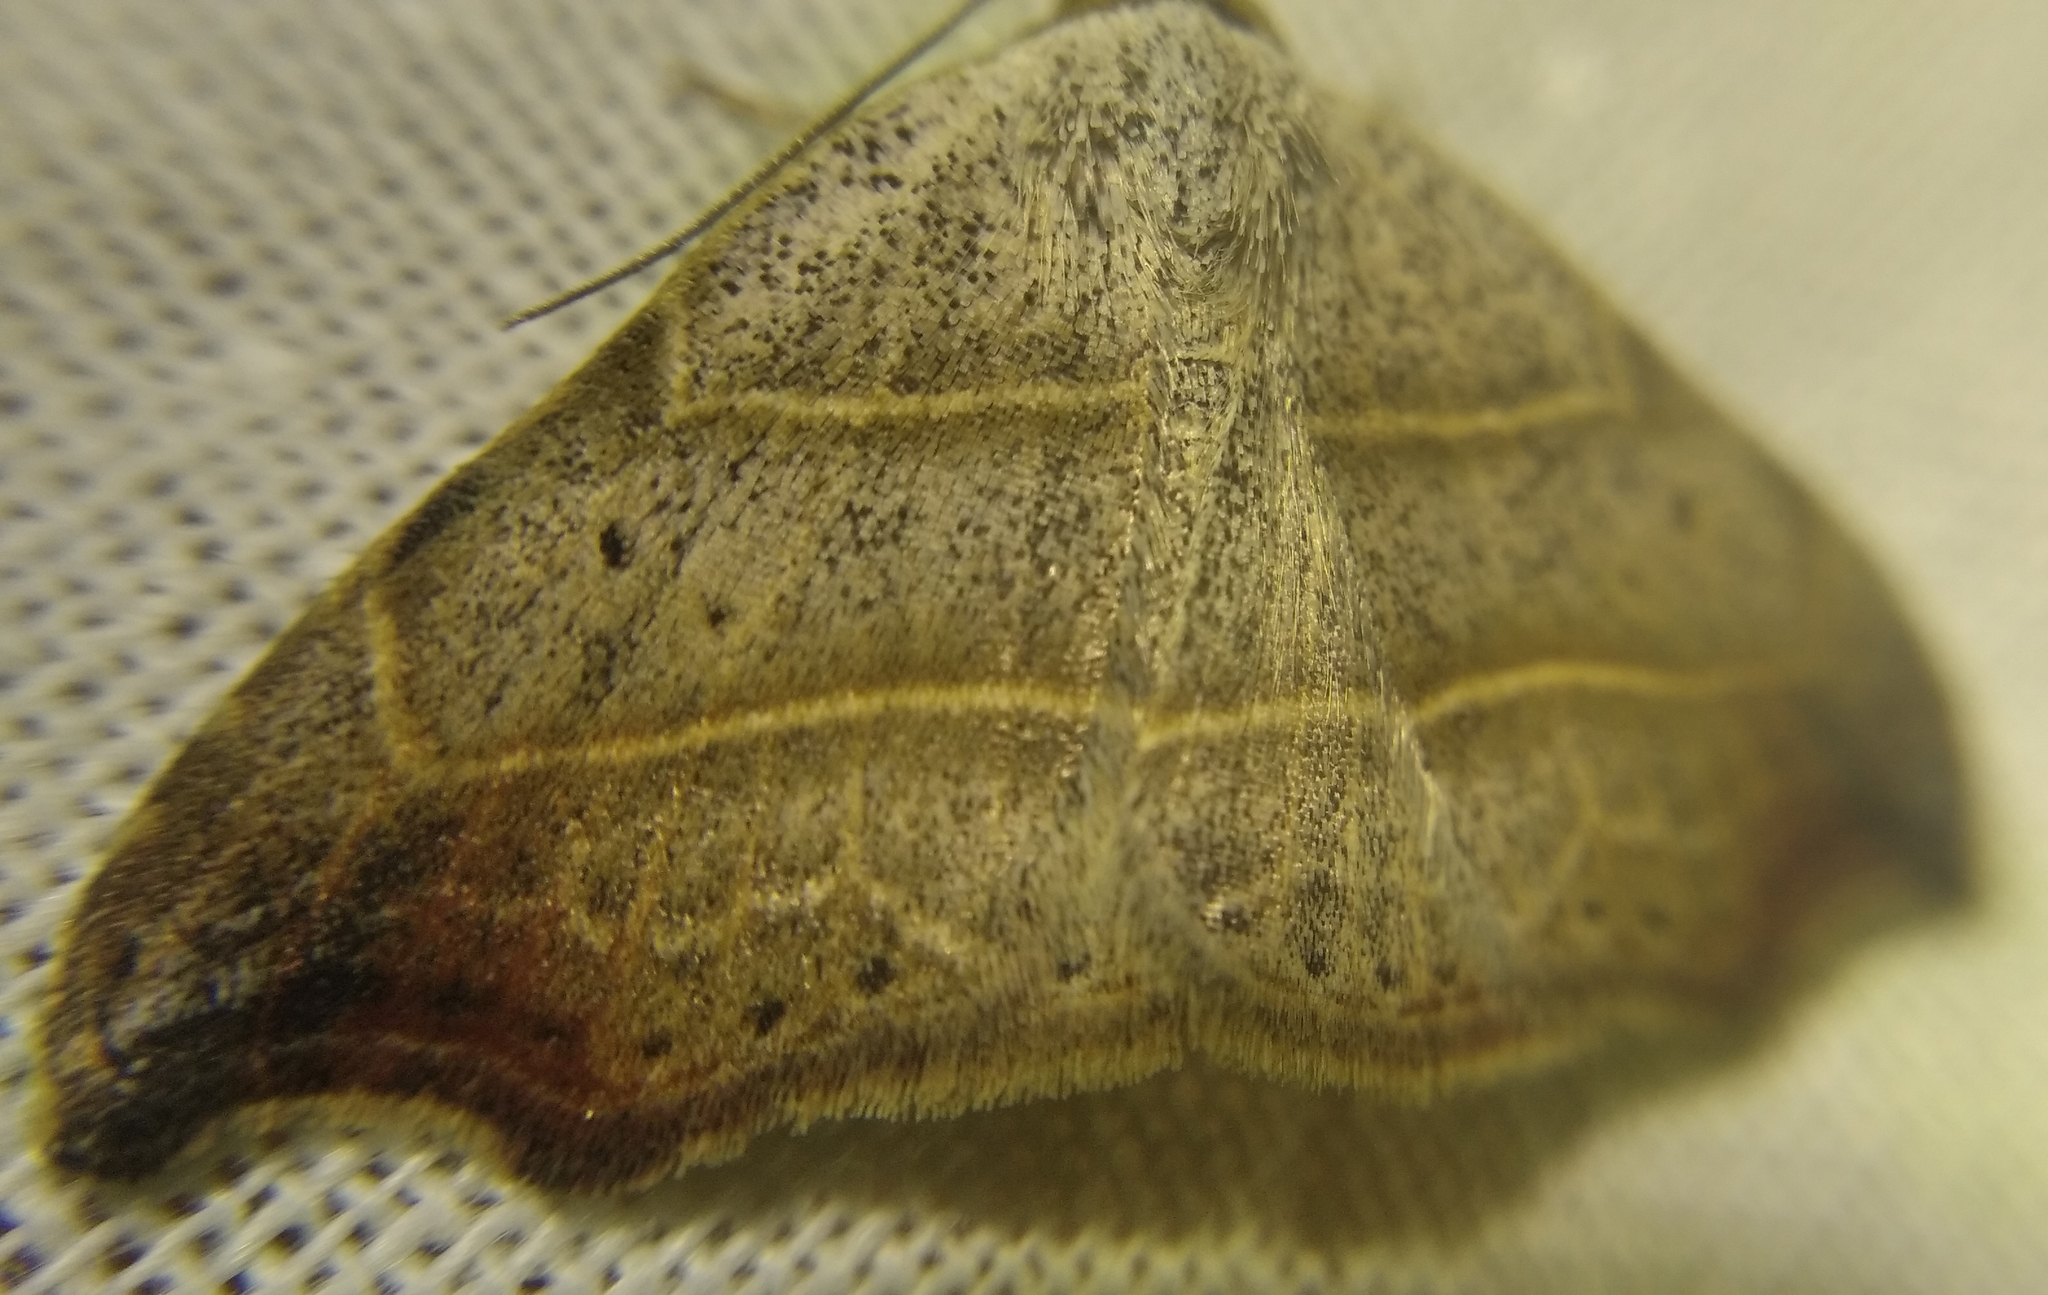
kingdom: Animalia
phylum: Arthropoda
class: Insecta
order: Lepidoptera
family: Erebidae
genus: Laspeyria
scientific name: Laspeyria flexula
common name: Beautiful hook-tip
